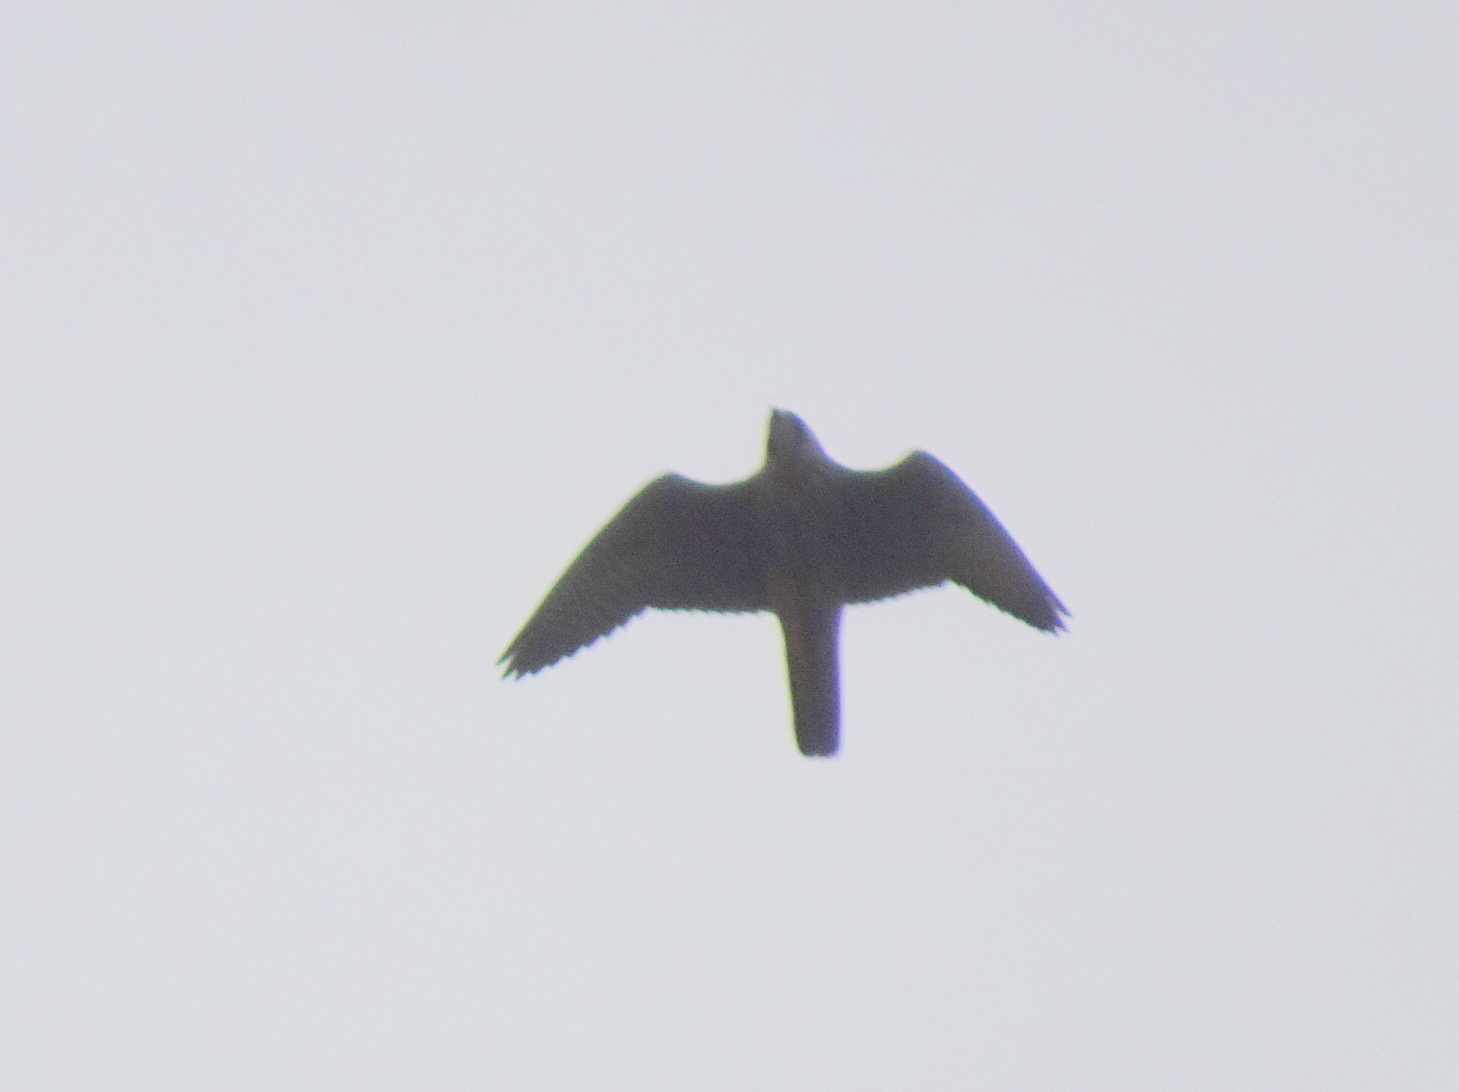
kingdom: Animalia
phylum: Chordata
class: Aves
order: Falconiformes
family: Falconidae
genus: Falco
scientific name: Falco peregrinus
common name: Peregrine falcon
